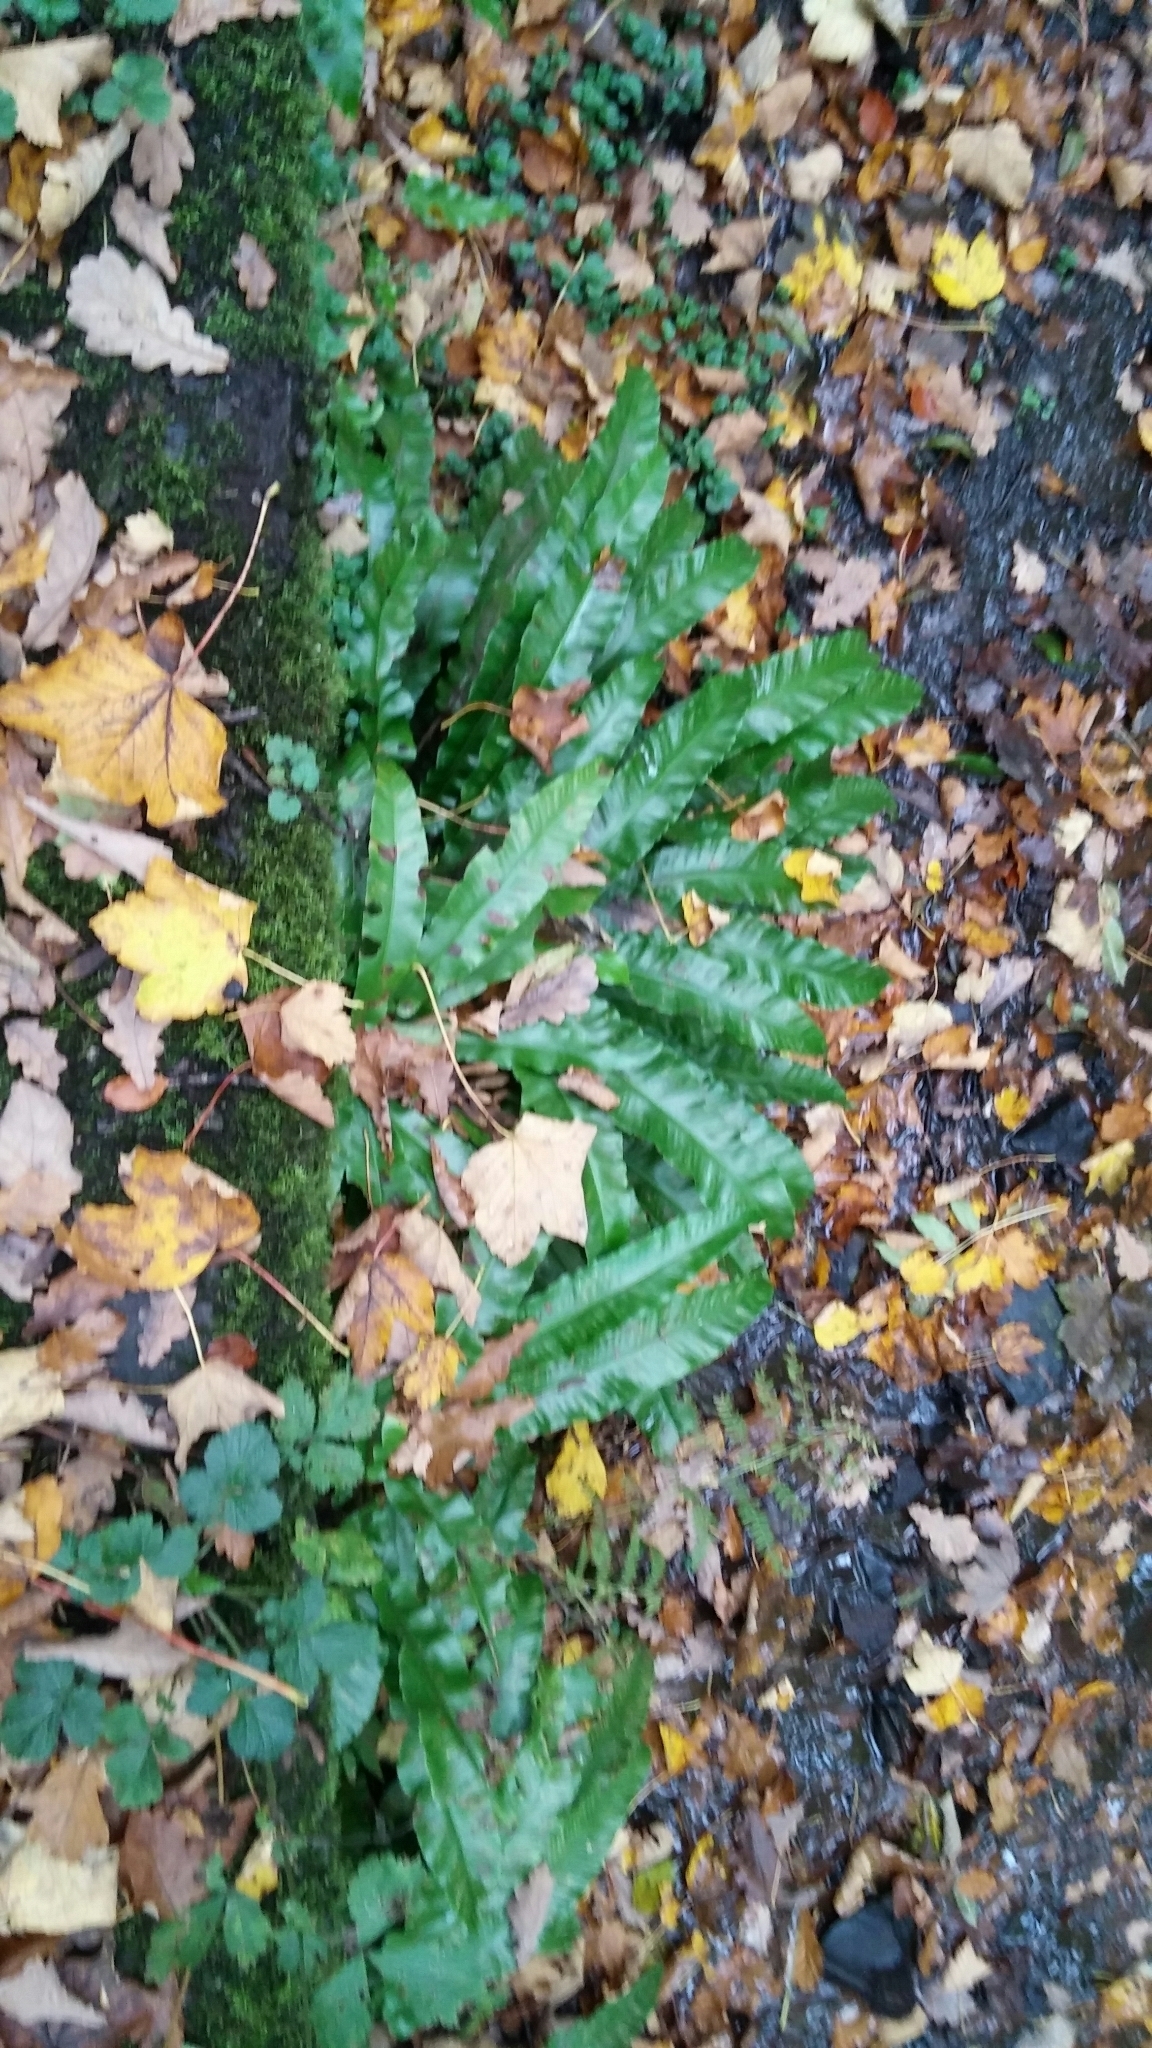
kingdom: Plantae
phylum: Tracheophyta
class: Polypodiopsida
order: Polypodiales
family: Aspleniaceae
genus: Asplenium
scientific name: Asplenium scolopendrium
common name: Hart's-tongue fern
